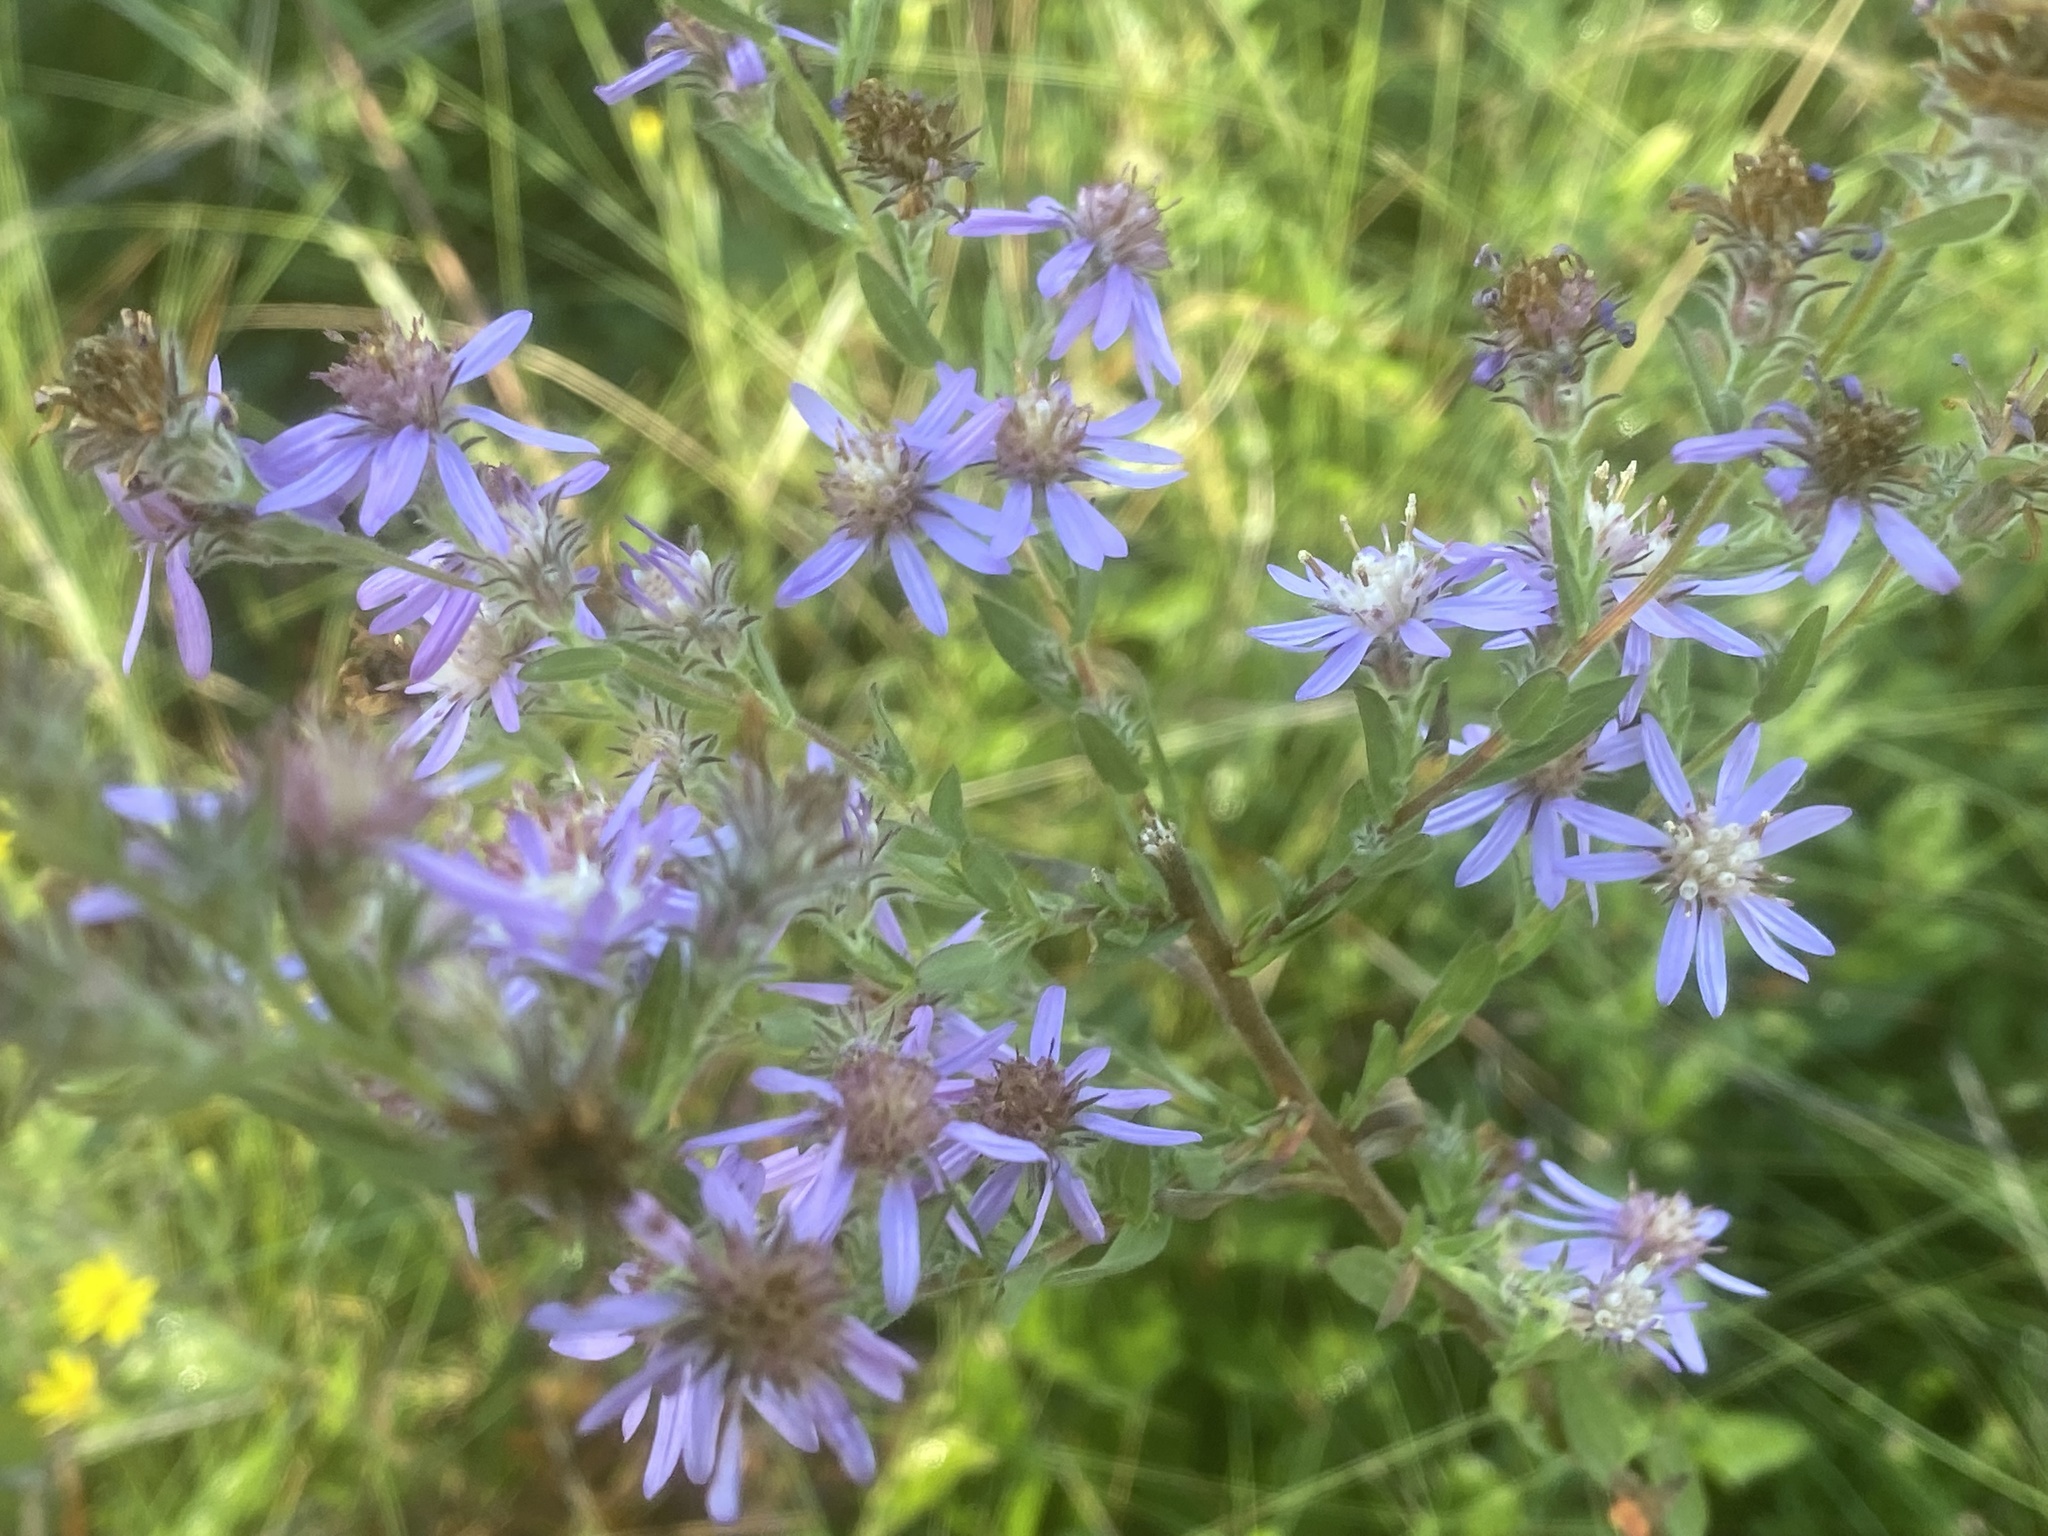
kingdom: Plantae
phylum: Tracheophyta
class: Magnoliopsida
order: Asterales
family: Asteraceae
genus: Symphyotrichum
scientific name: Symphyotrichum plumosum
